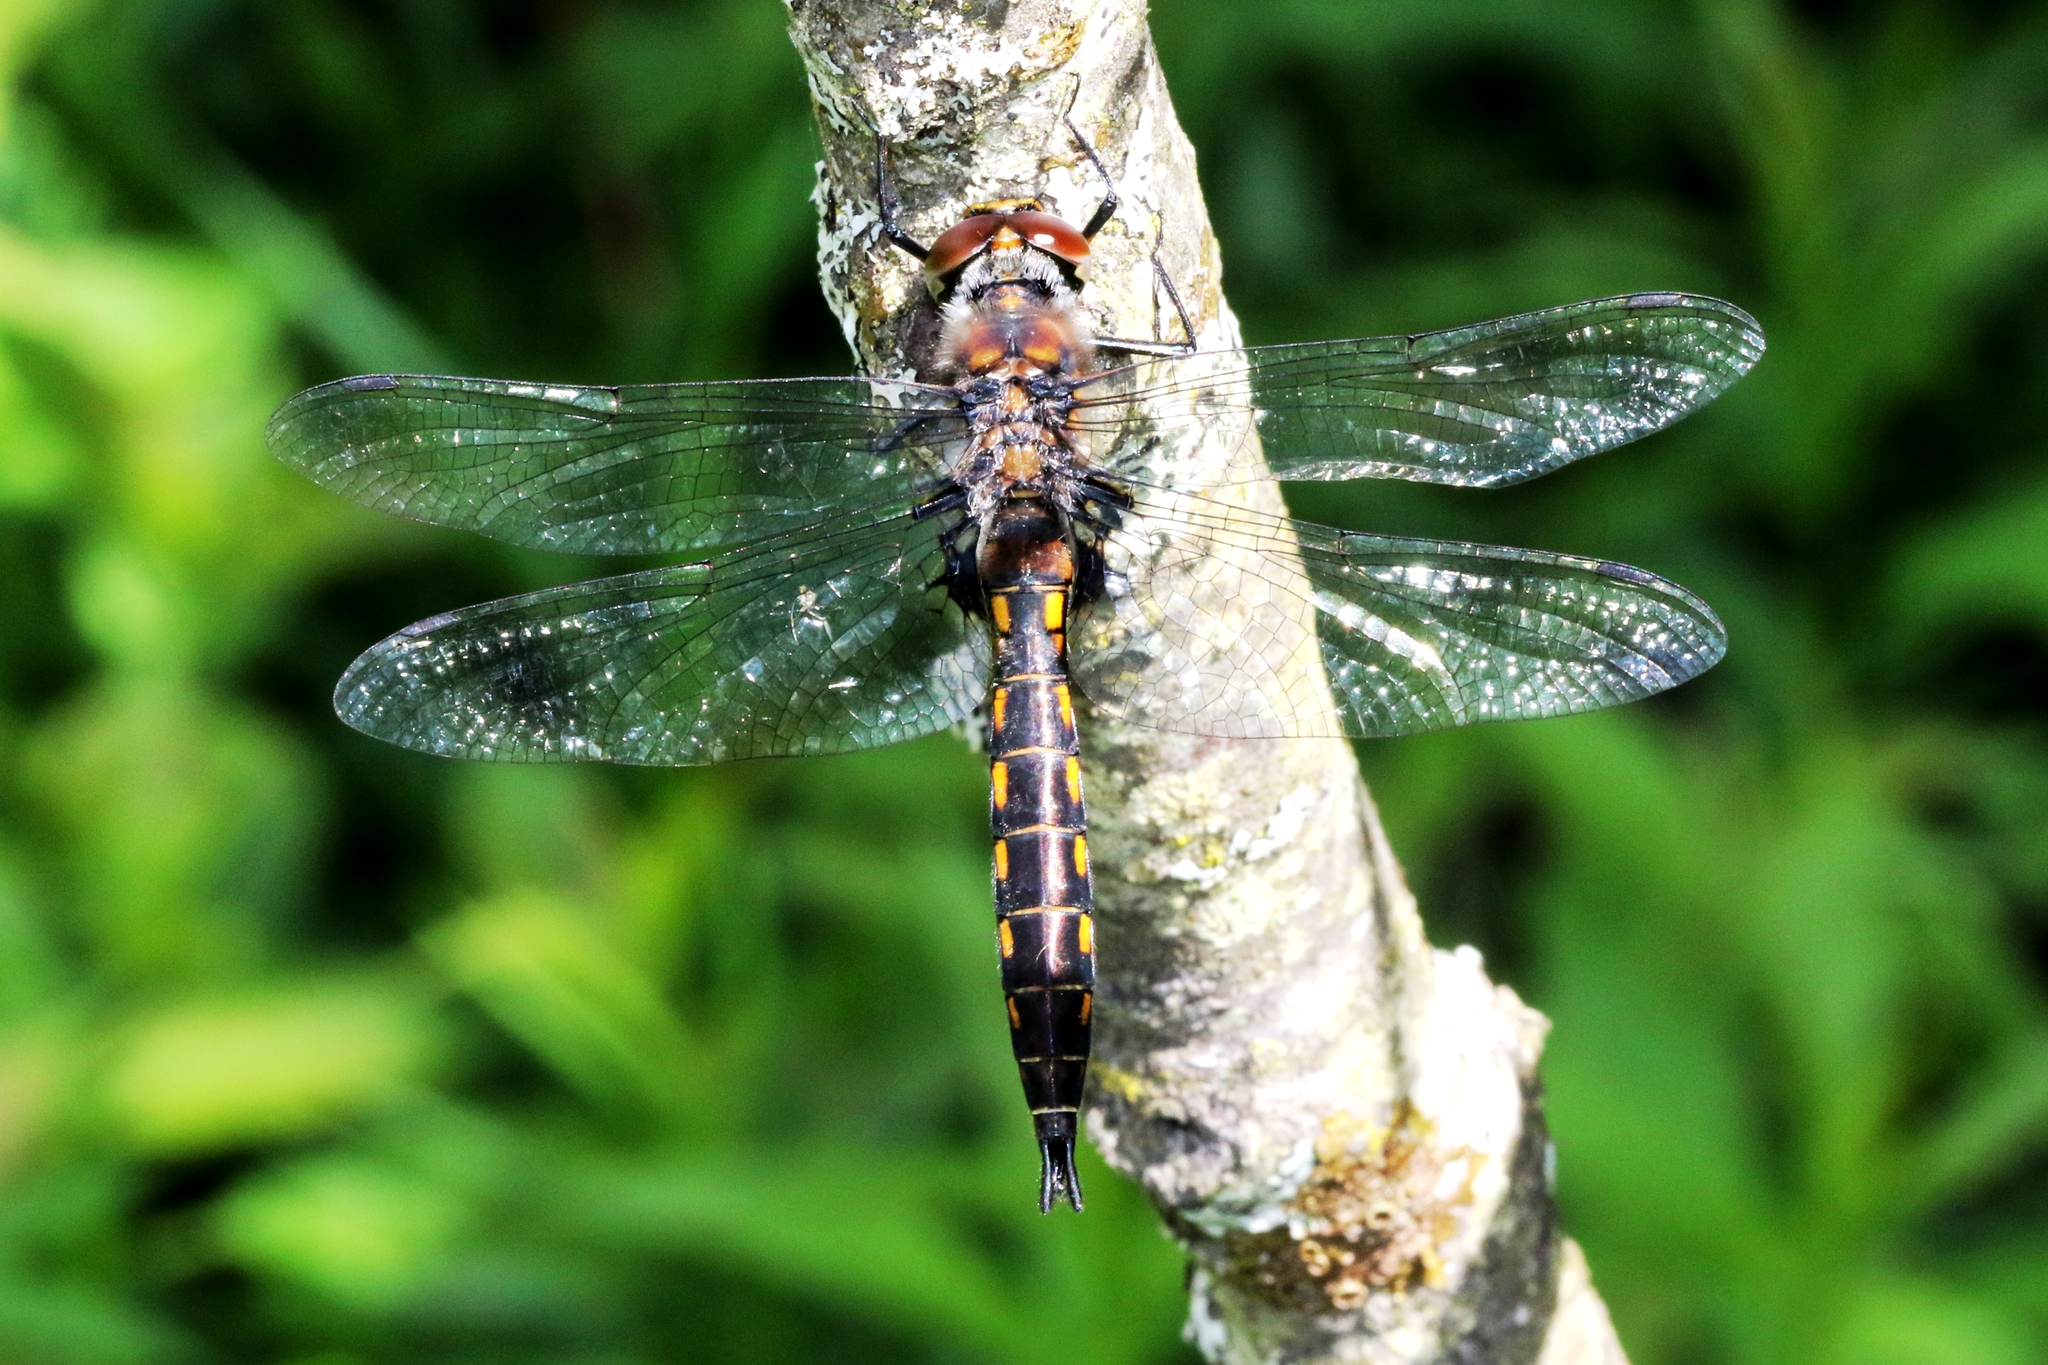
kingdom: Animalia
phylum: Arthropoda
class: Insecta
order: Odonata
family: Corduliidae
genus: Epitheca
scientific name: Epitheca spinigera
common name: Spiny baskettail
